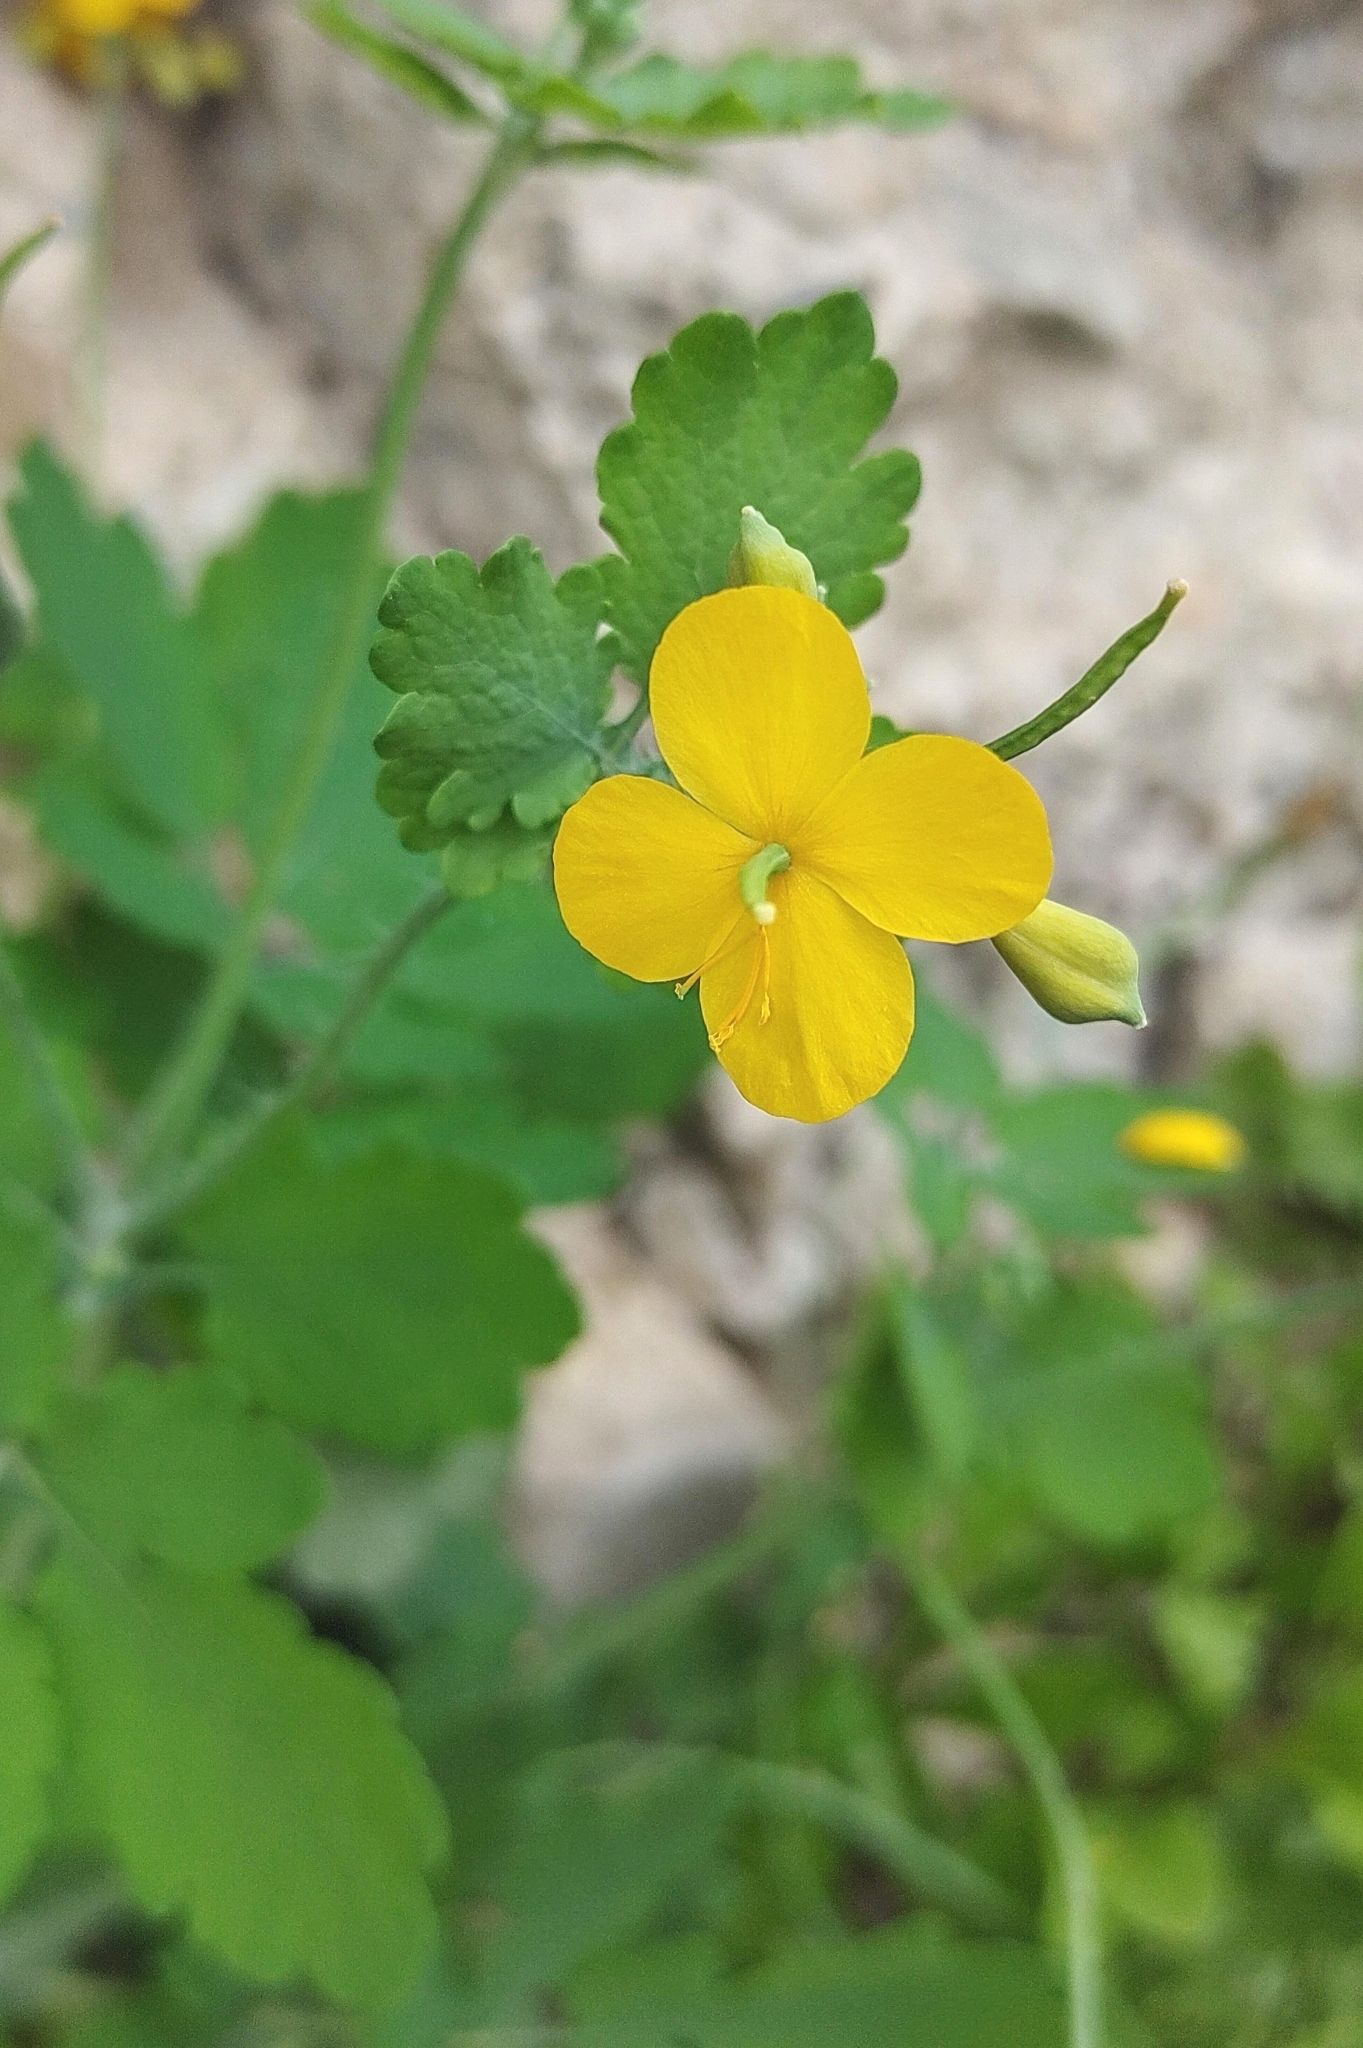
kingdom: Plantae
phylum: Tracheophyta
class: Magnoliopsida
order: Ranunculales
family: Papaveraceae
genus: Chelidonium
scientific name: Chelidonium majus
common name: Greater celandine
